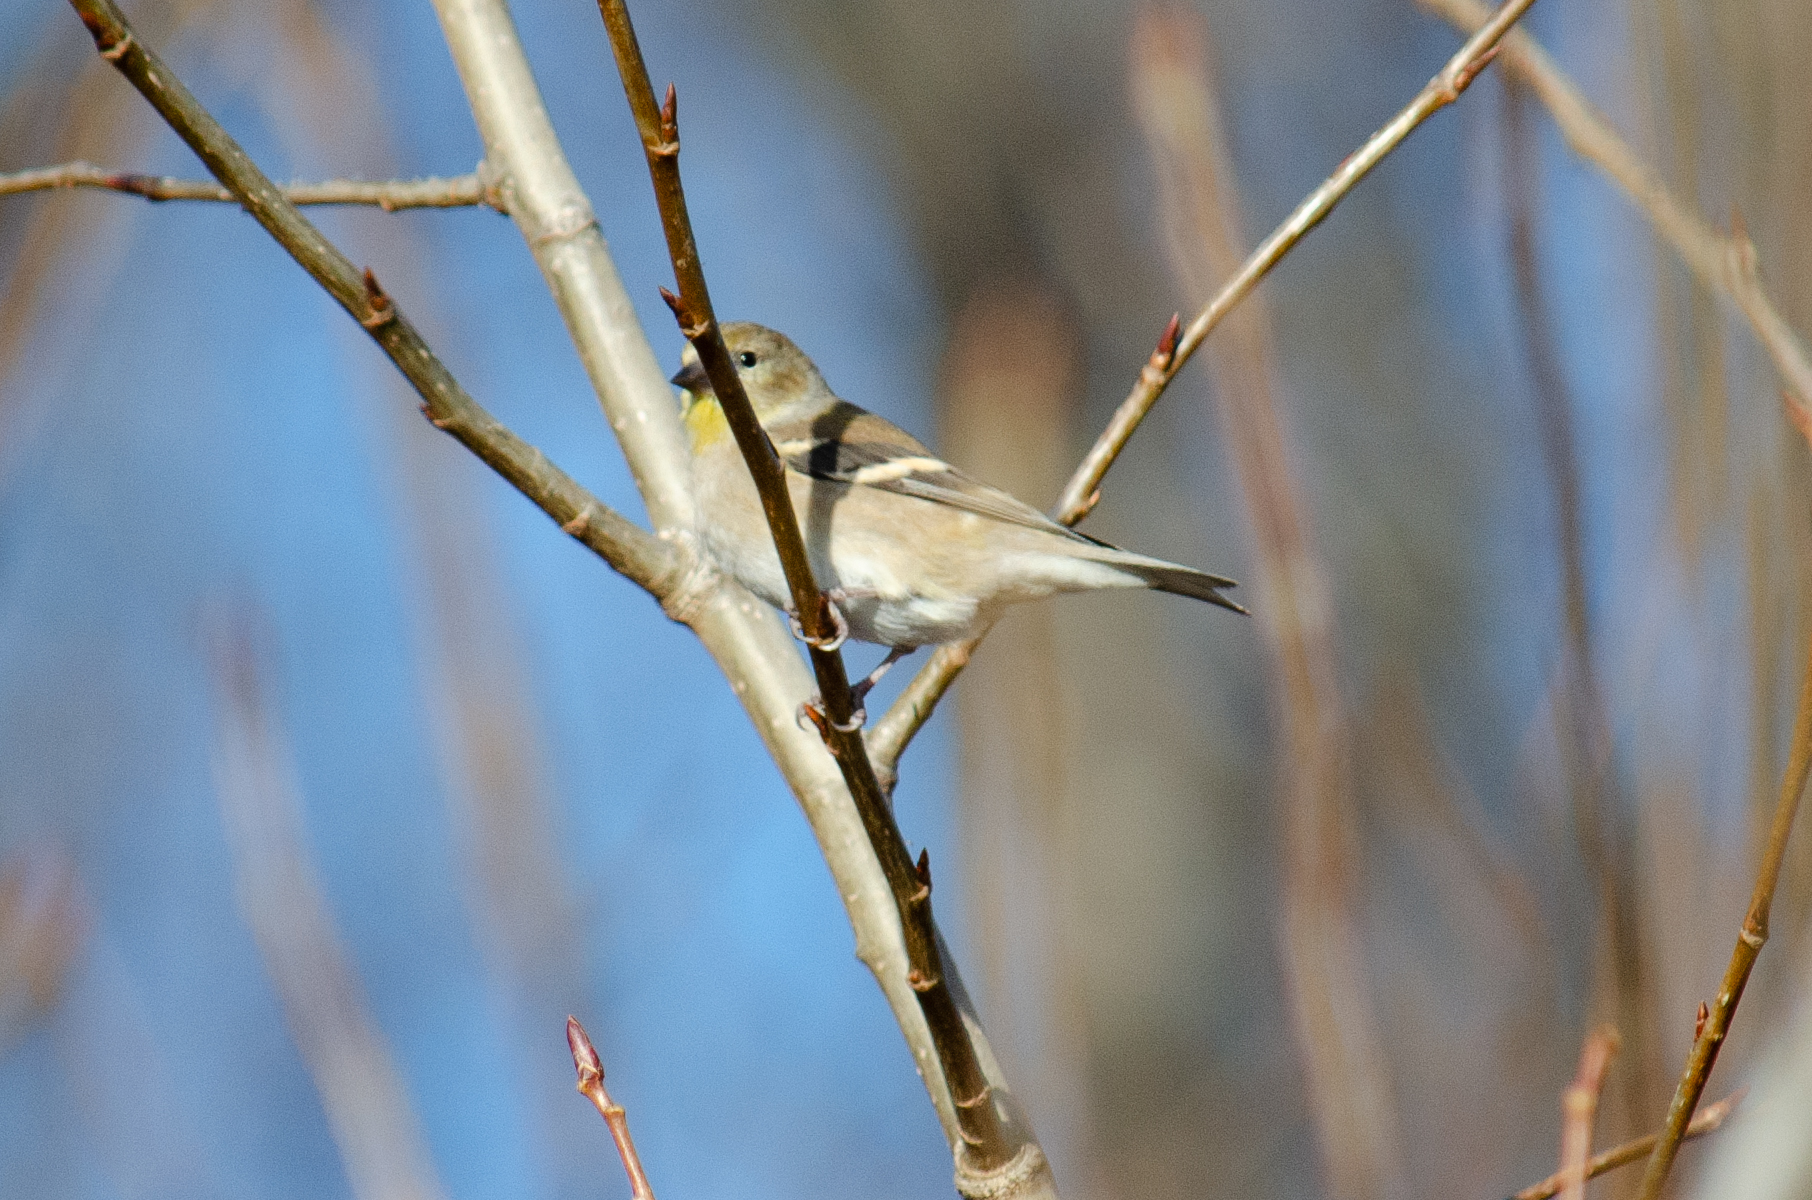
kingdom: Animalia
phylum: Chordata
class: Aves
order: Passeriformes
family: Fringillidae
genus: Spinus
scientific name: Spinus tristis
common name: American goldfinch
